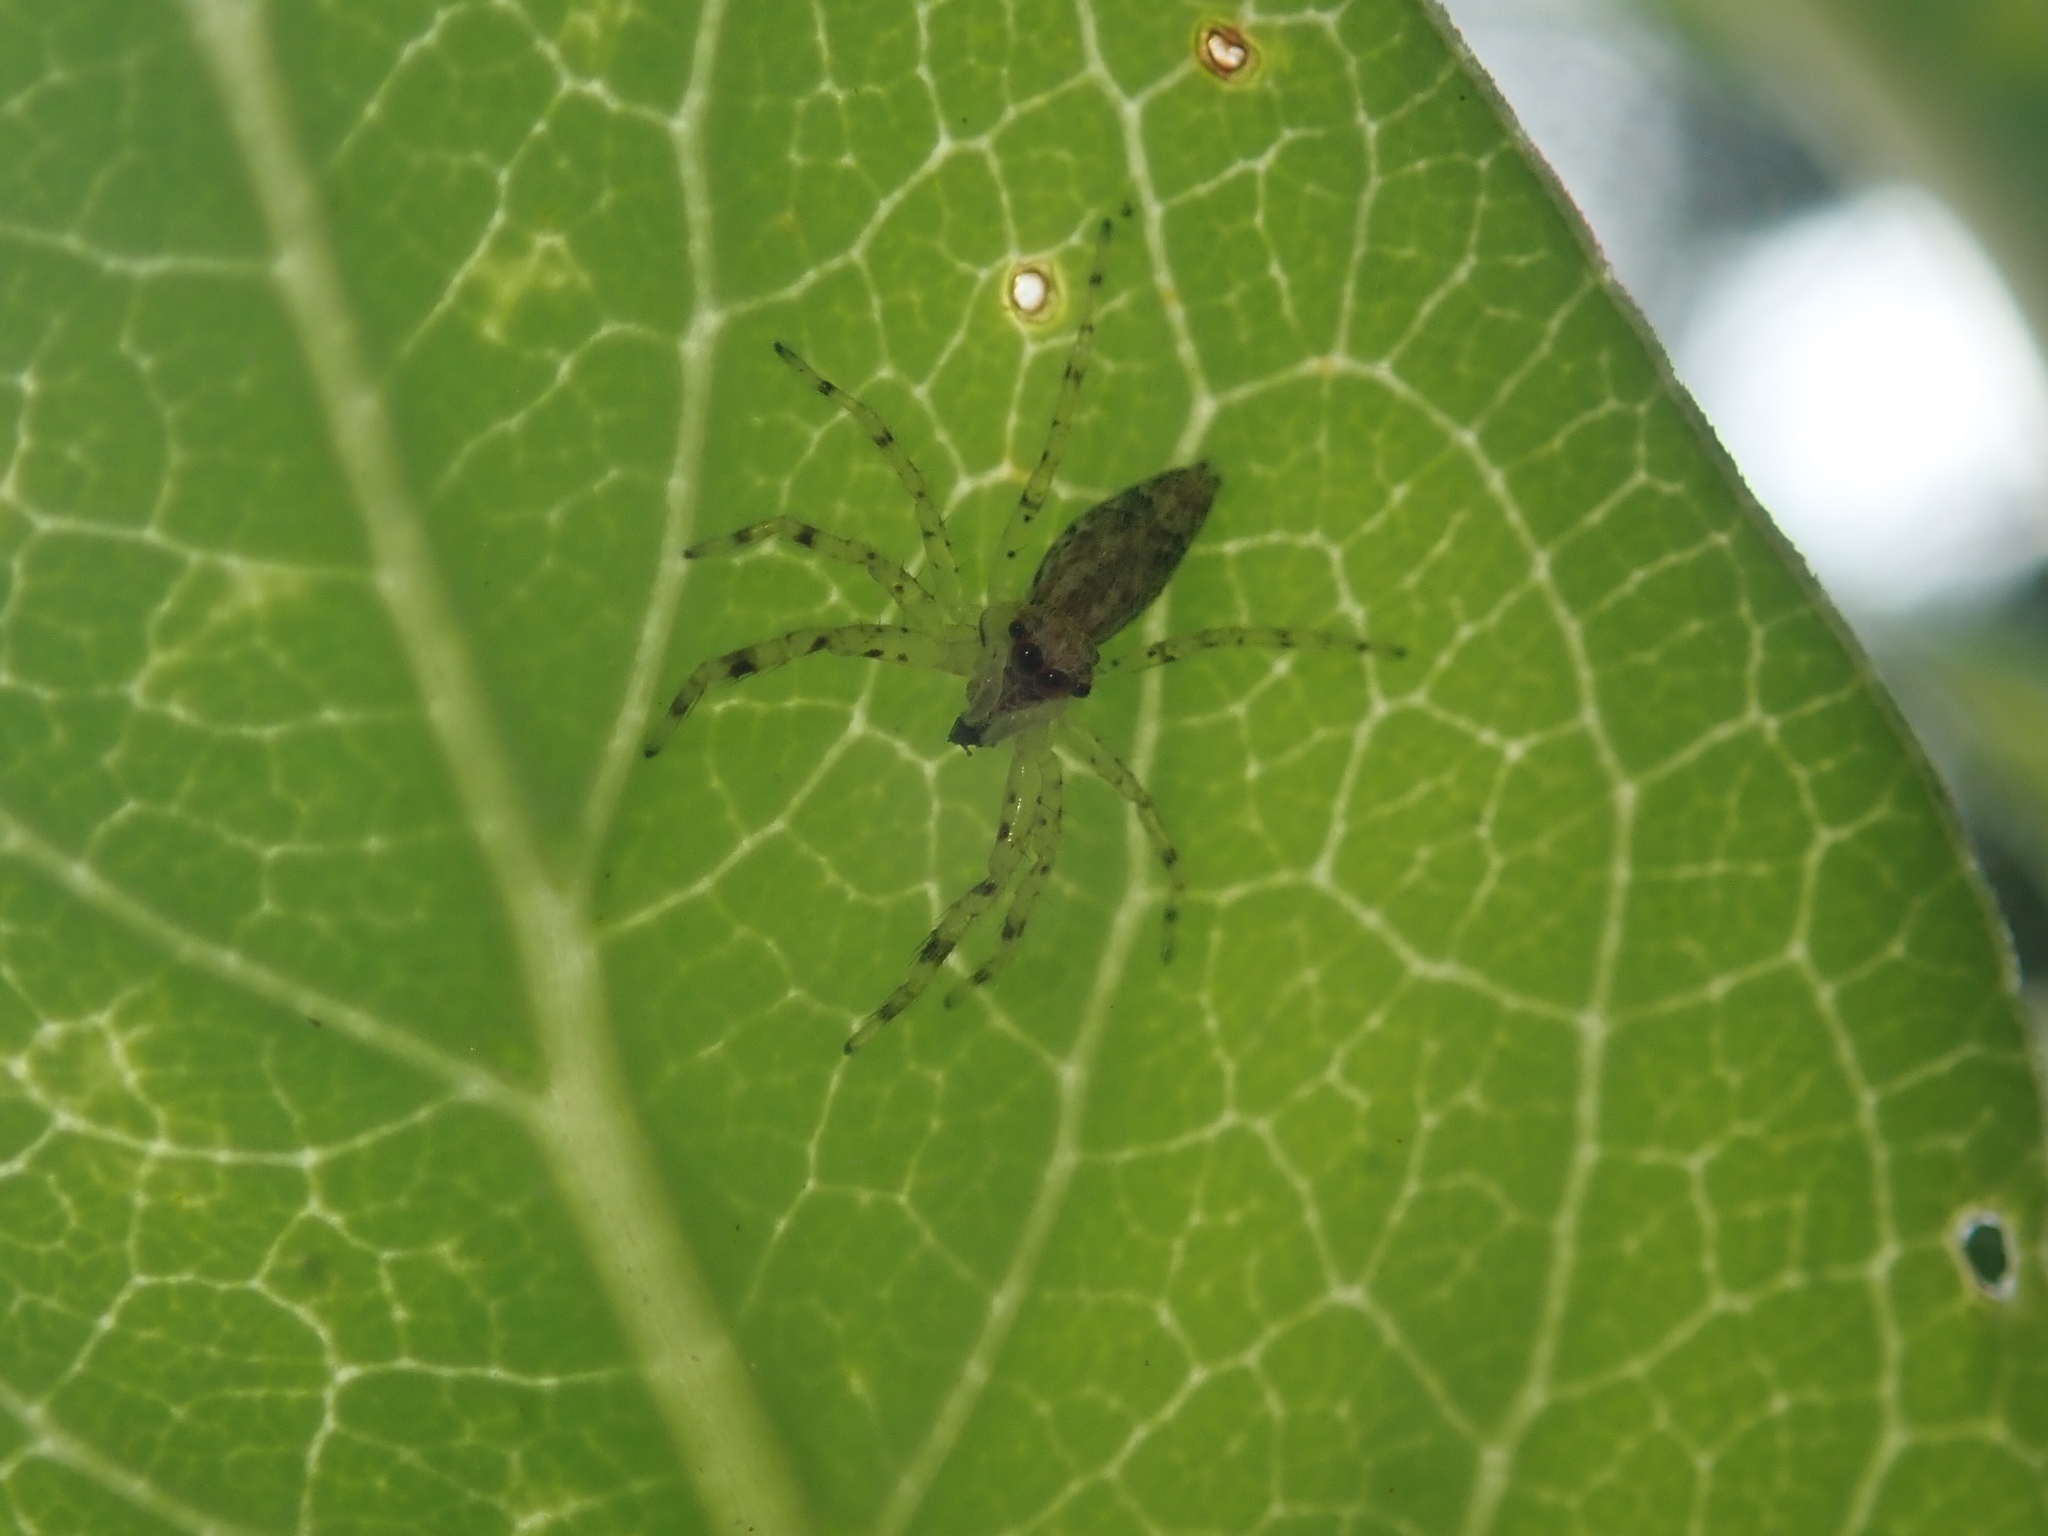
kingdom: Animalia
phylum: Arthropoda
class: Arachnida
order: Araneae
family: Salticidae
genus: Helpis
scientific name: Helpis minitabunda
